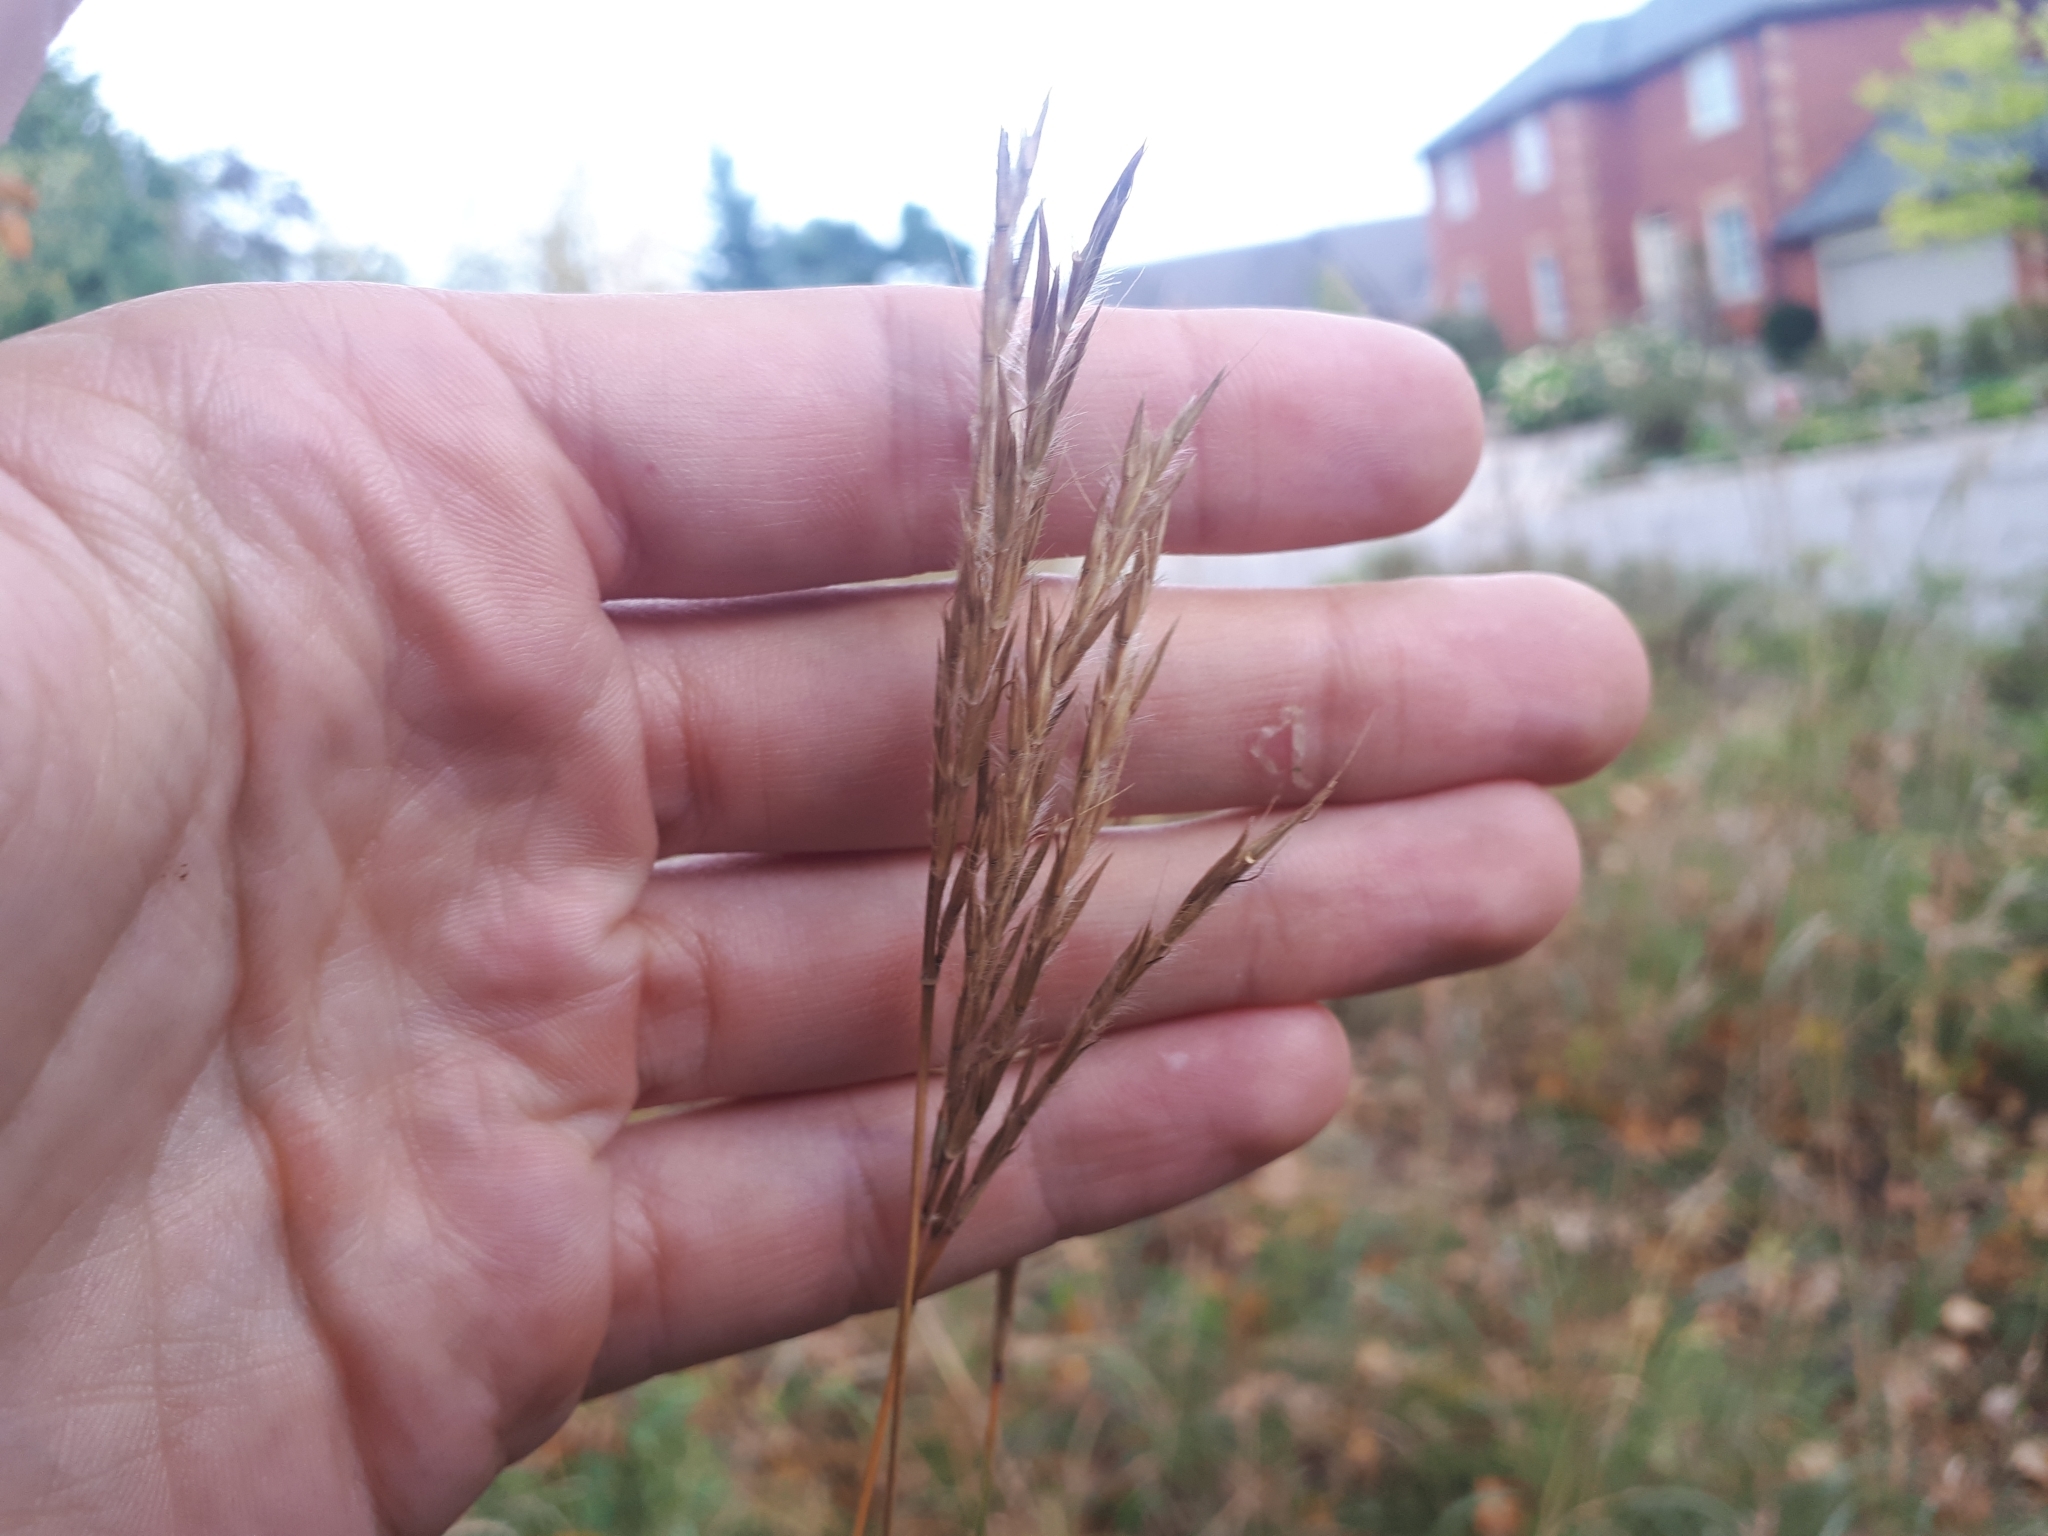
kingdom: Plantae
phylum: Tracheophyta
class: Liliopsida
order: Poales
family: Poaceae
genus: Andropogon
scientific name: Andropogon gerardi
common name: Big bluestem
